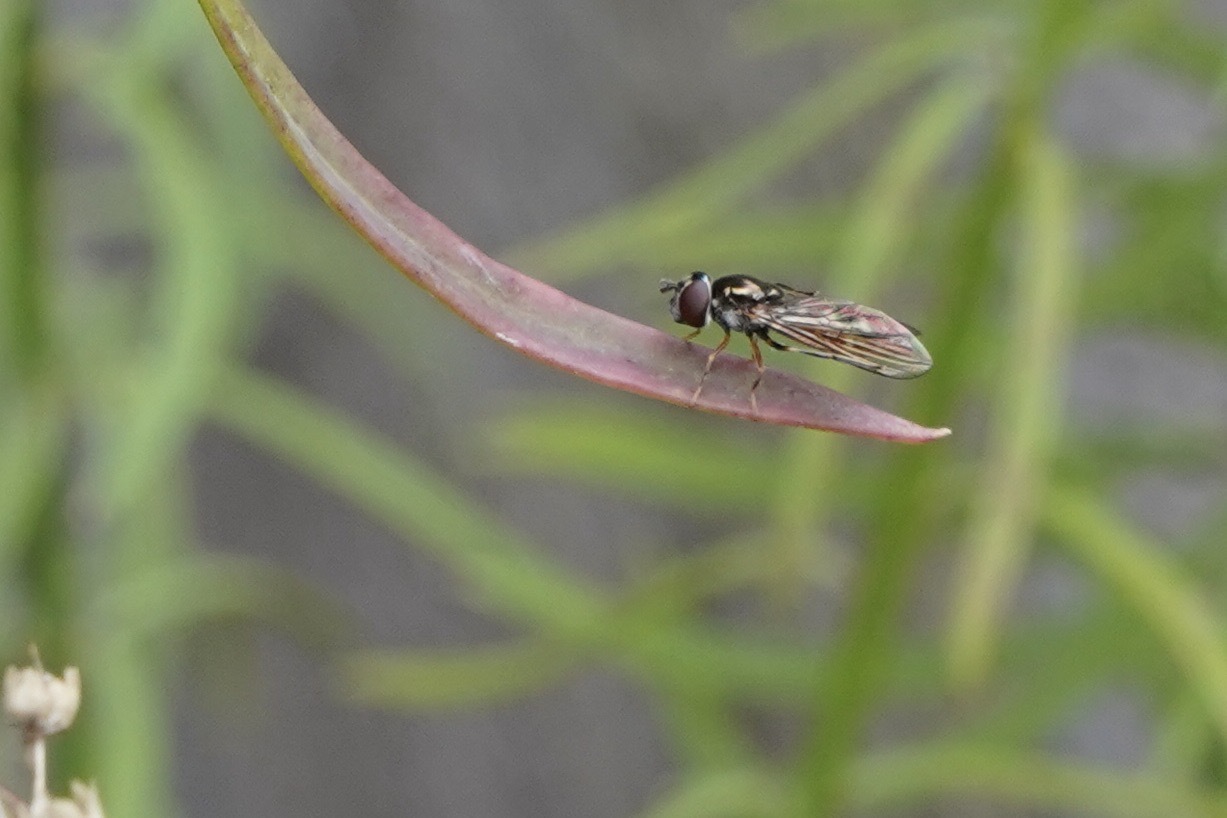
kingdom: Animalia
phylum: Arthropoda
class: Insecta
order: Diptera
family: Syrphidae
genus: Platycheirus
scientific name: Platycheirus albimanus
